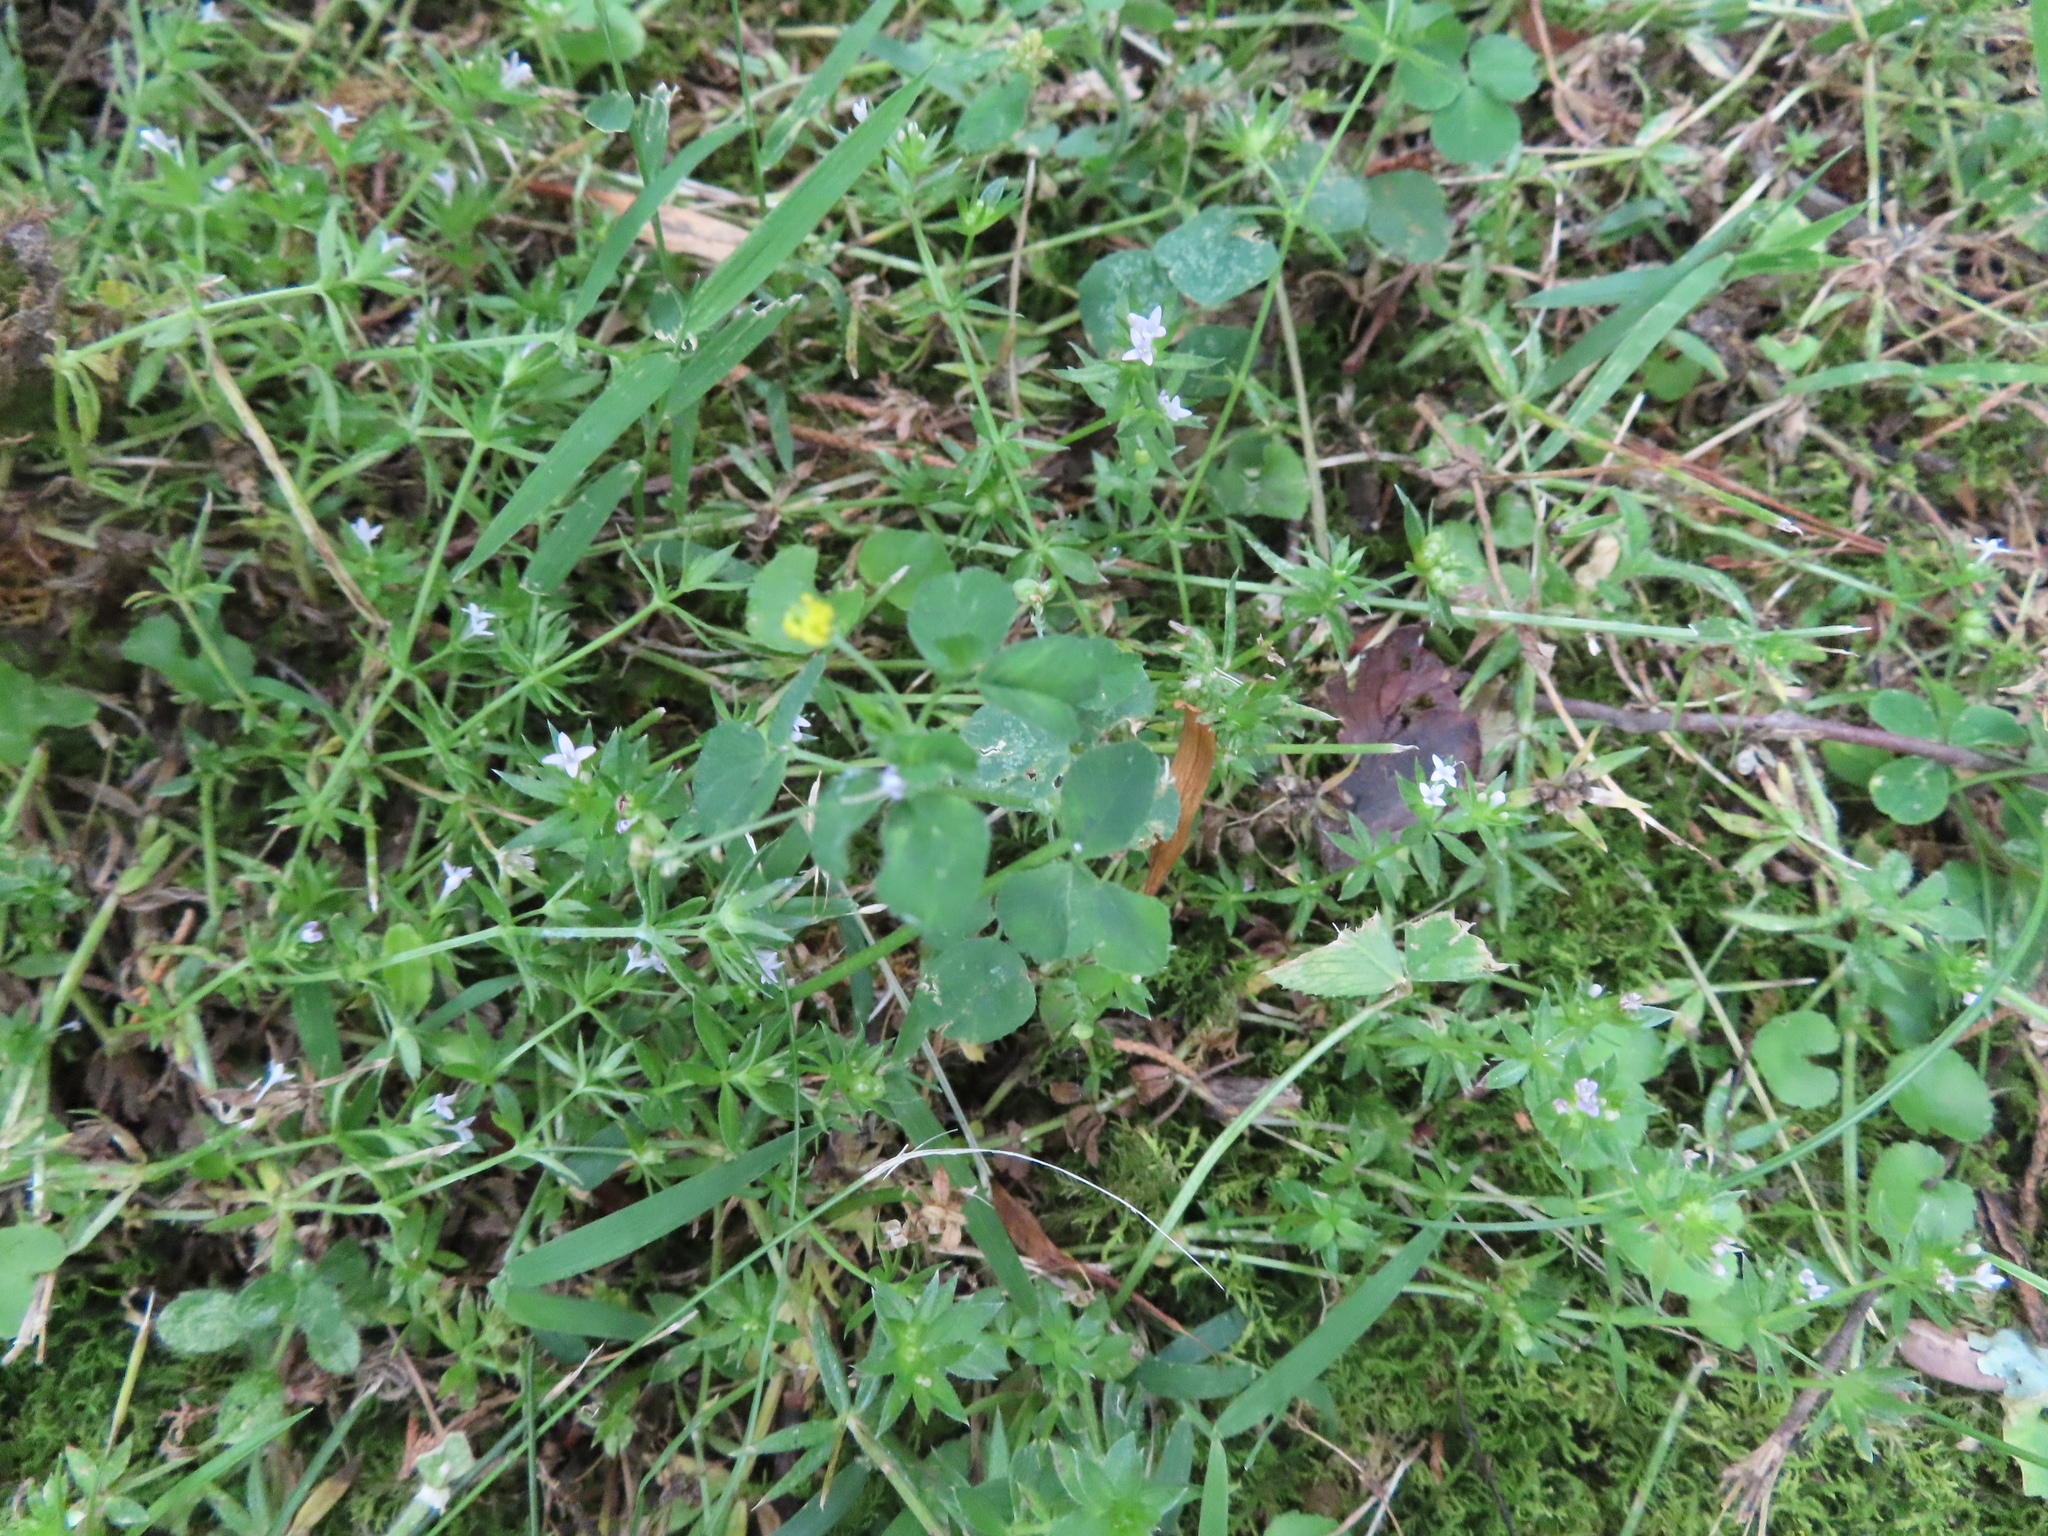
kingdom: Plantae
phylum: Tracheophyta
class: Magnoliopsida
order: Fabales
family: Fabaceae
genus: Medicago
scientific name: Medicago lupulina
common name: Black medick
